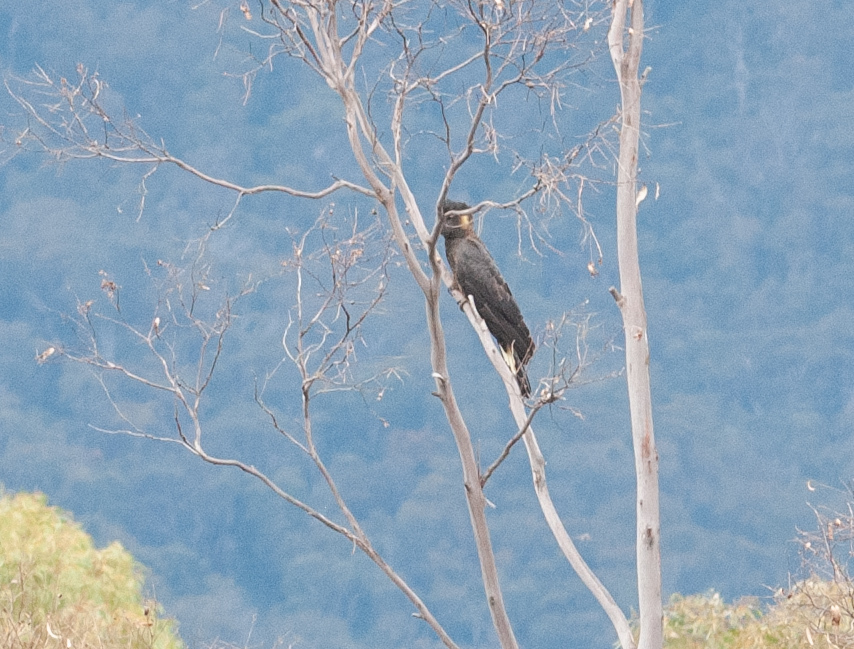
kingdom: Animalia
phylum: Chordata
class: Aves
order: Psittaciformes
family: Cacatuidae
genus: Zanda
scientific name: Zanda funerea
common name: Yellow-tailed black-cockatoo
